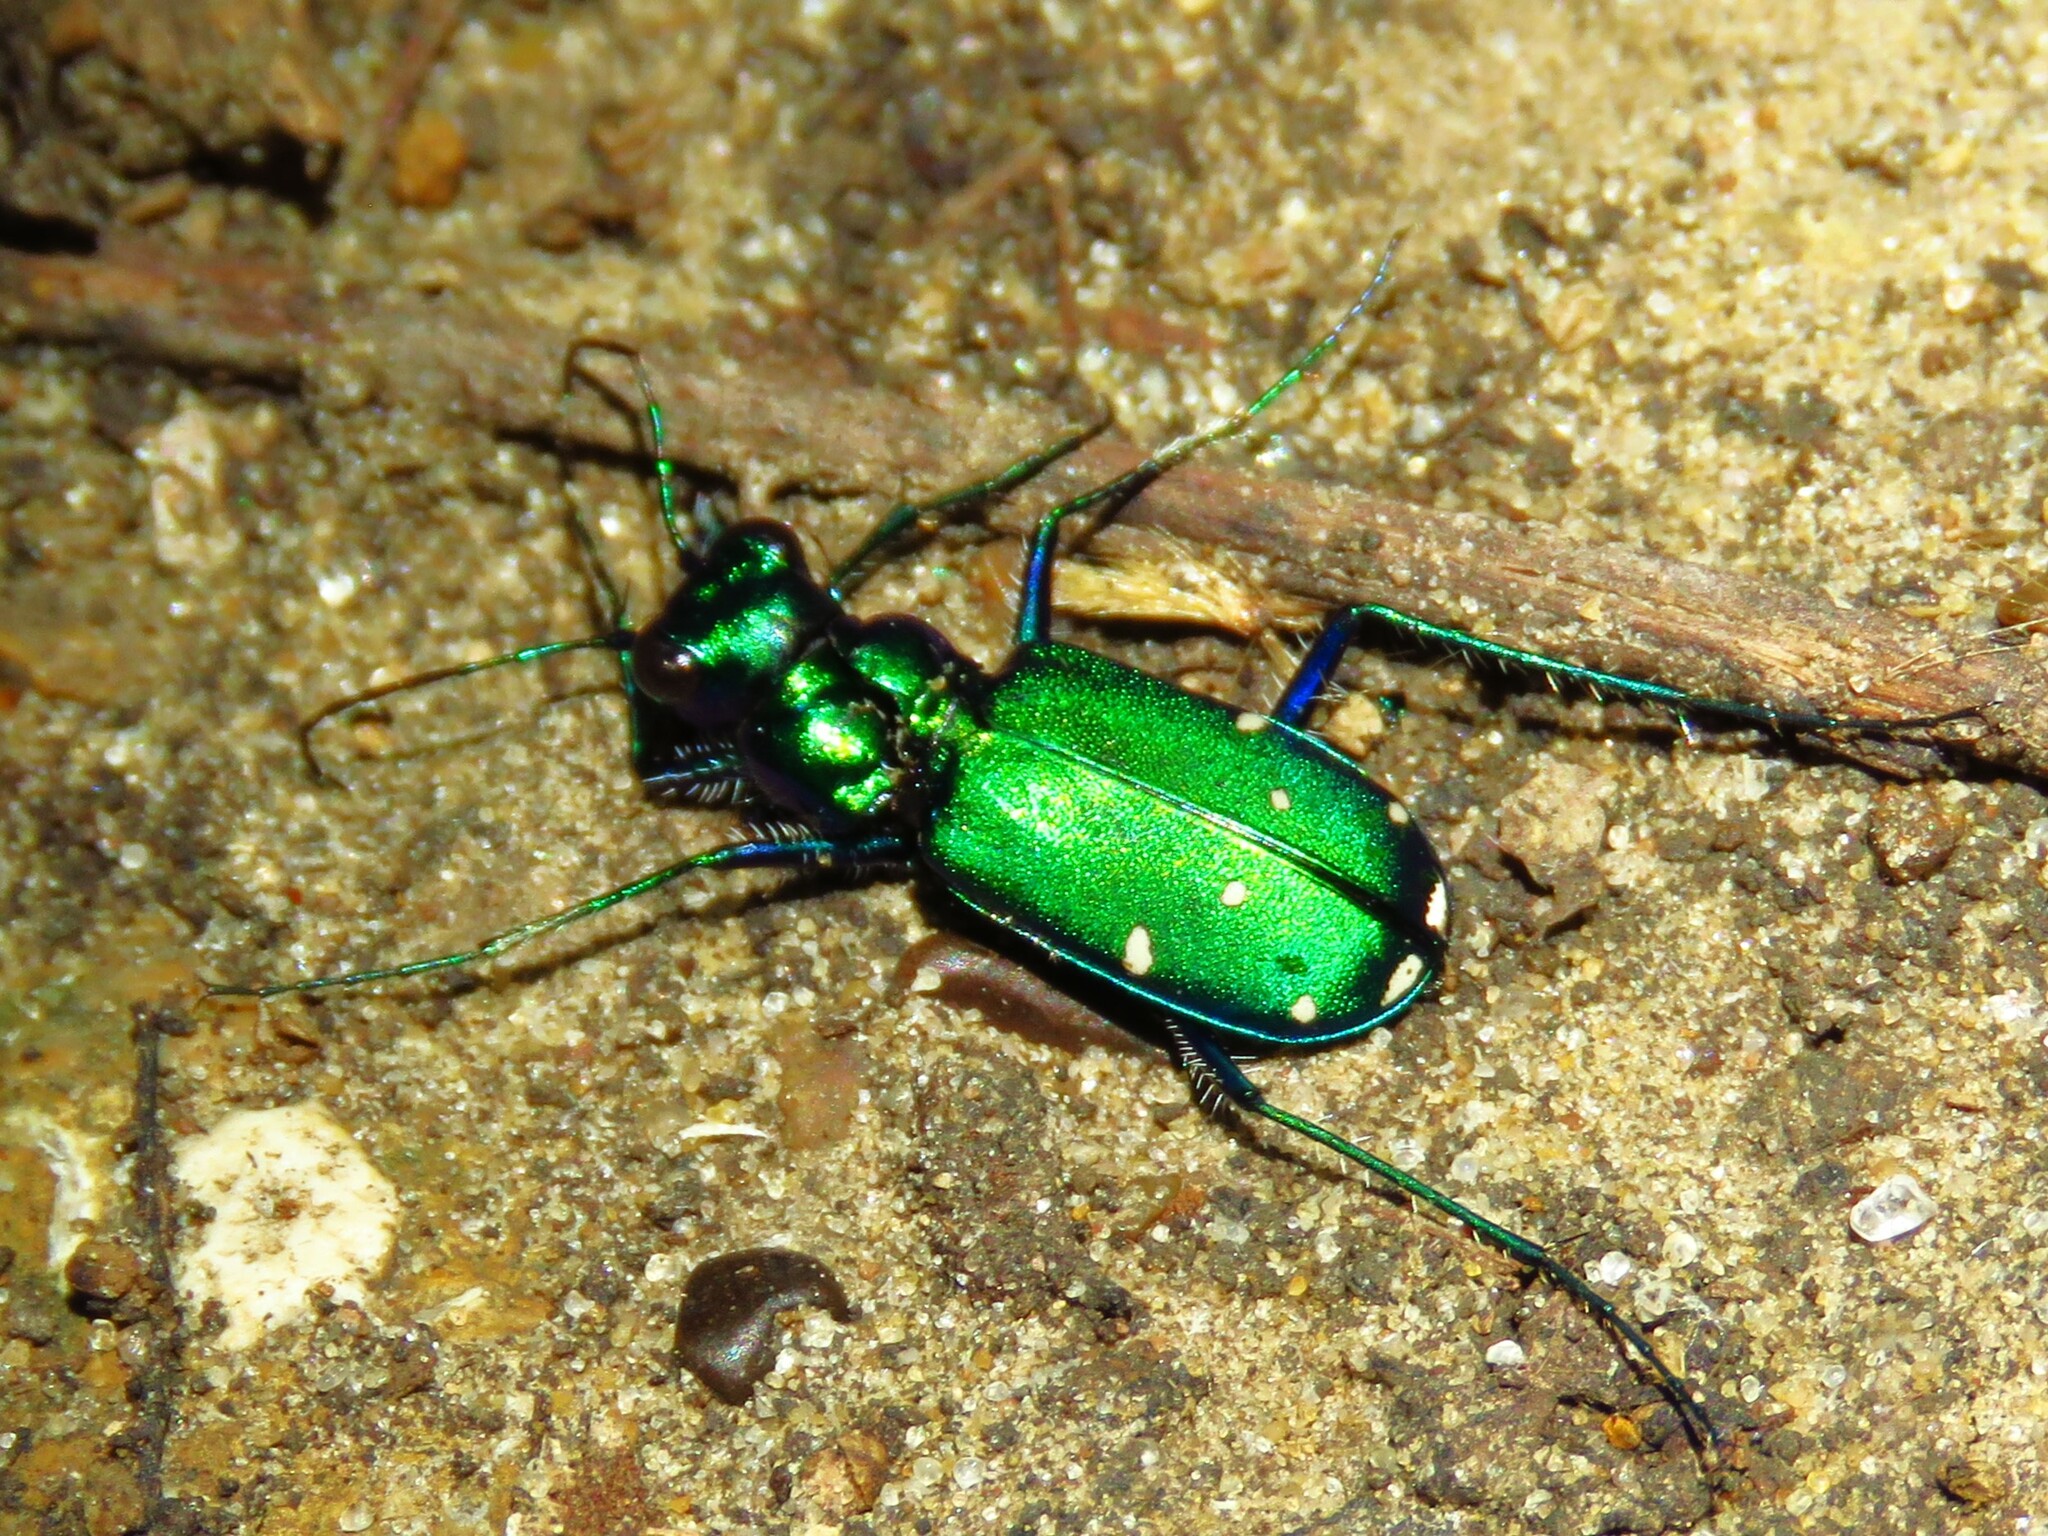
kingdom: Animalia
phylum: Arthropoda
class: Insecta
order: Coleoptera
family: Carabidae
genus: Cicindela
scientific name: Cicindela sexguttata
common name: Six-spotted tiger beetle
